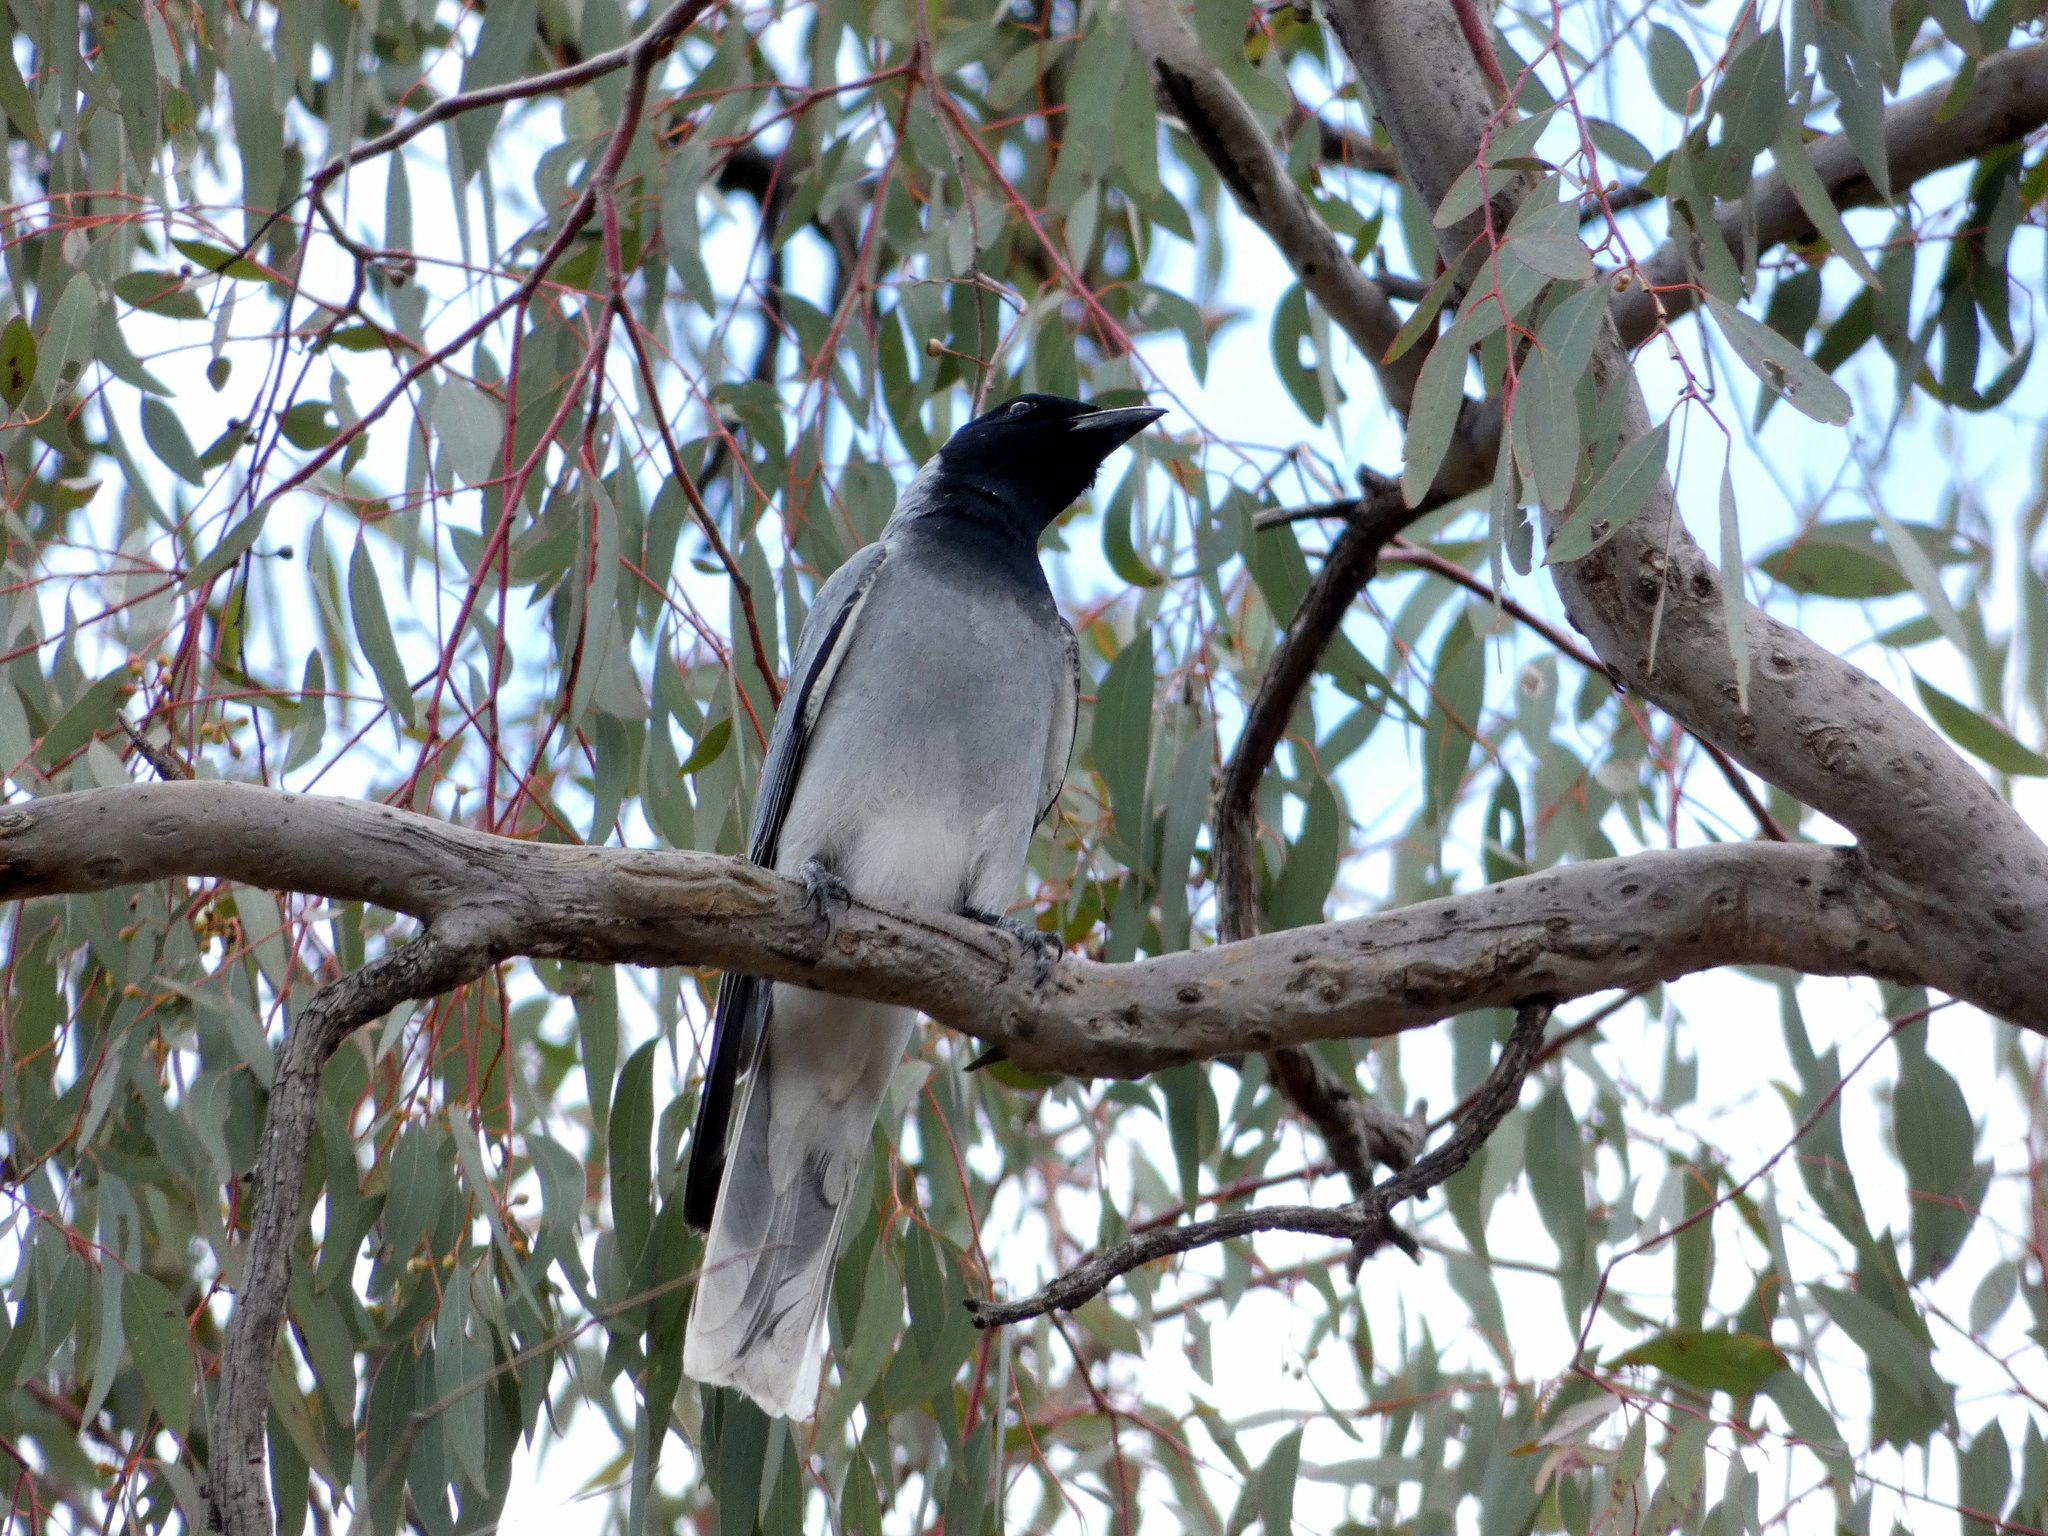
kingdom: Animalia
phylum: Chordata
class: Aves
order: Passeriformes
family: Campephagidae
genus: Coracina
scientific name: Coracina novaehollandiae
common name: Black-faced cuckooshrike
